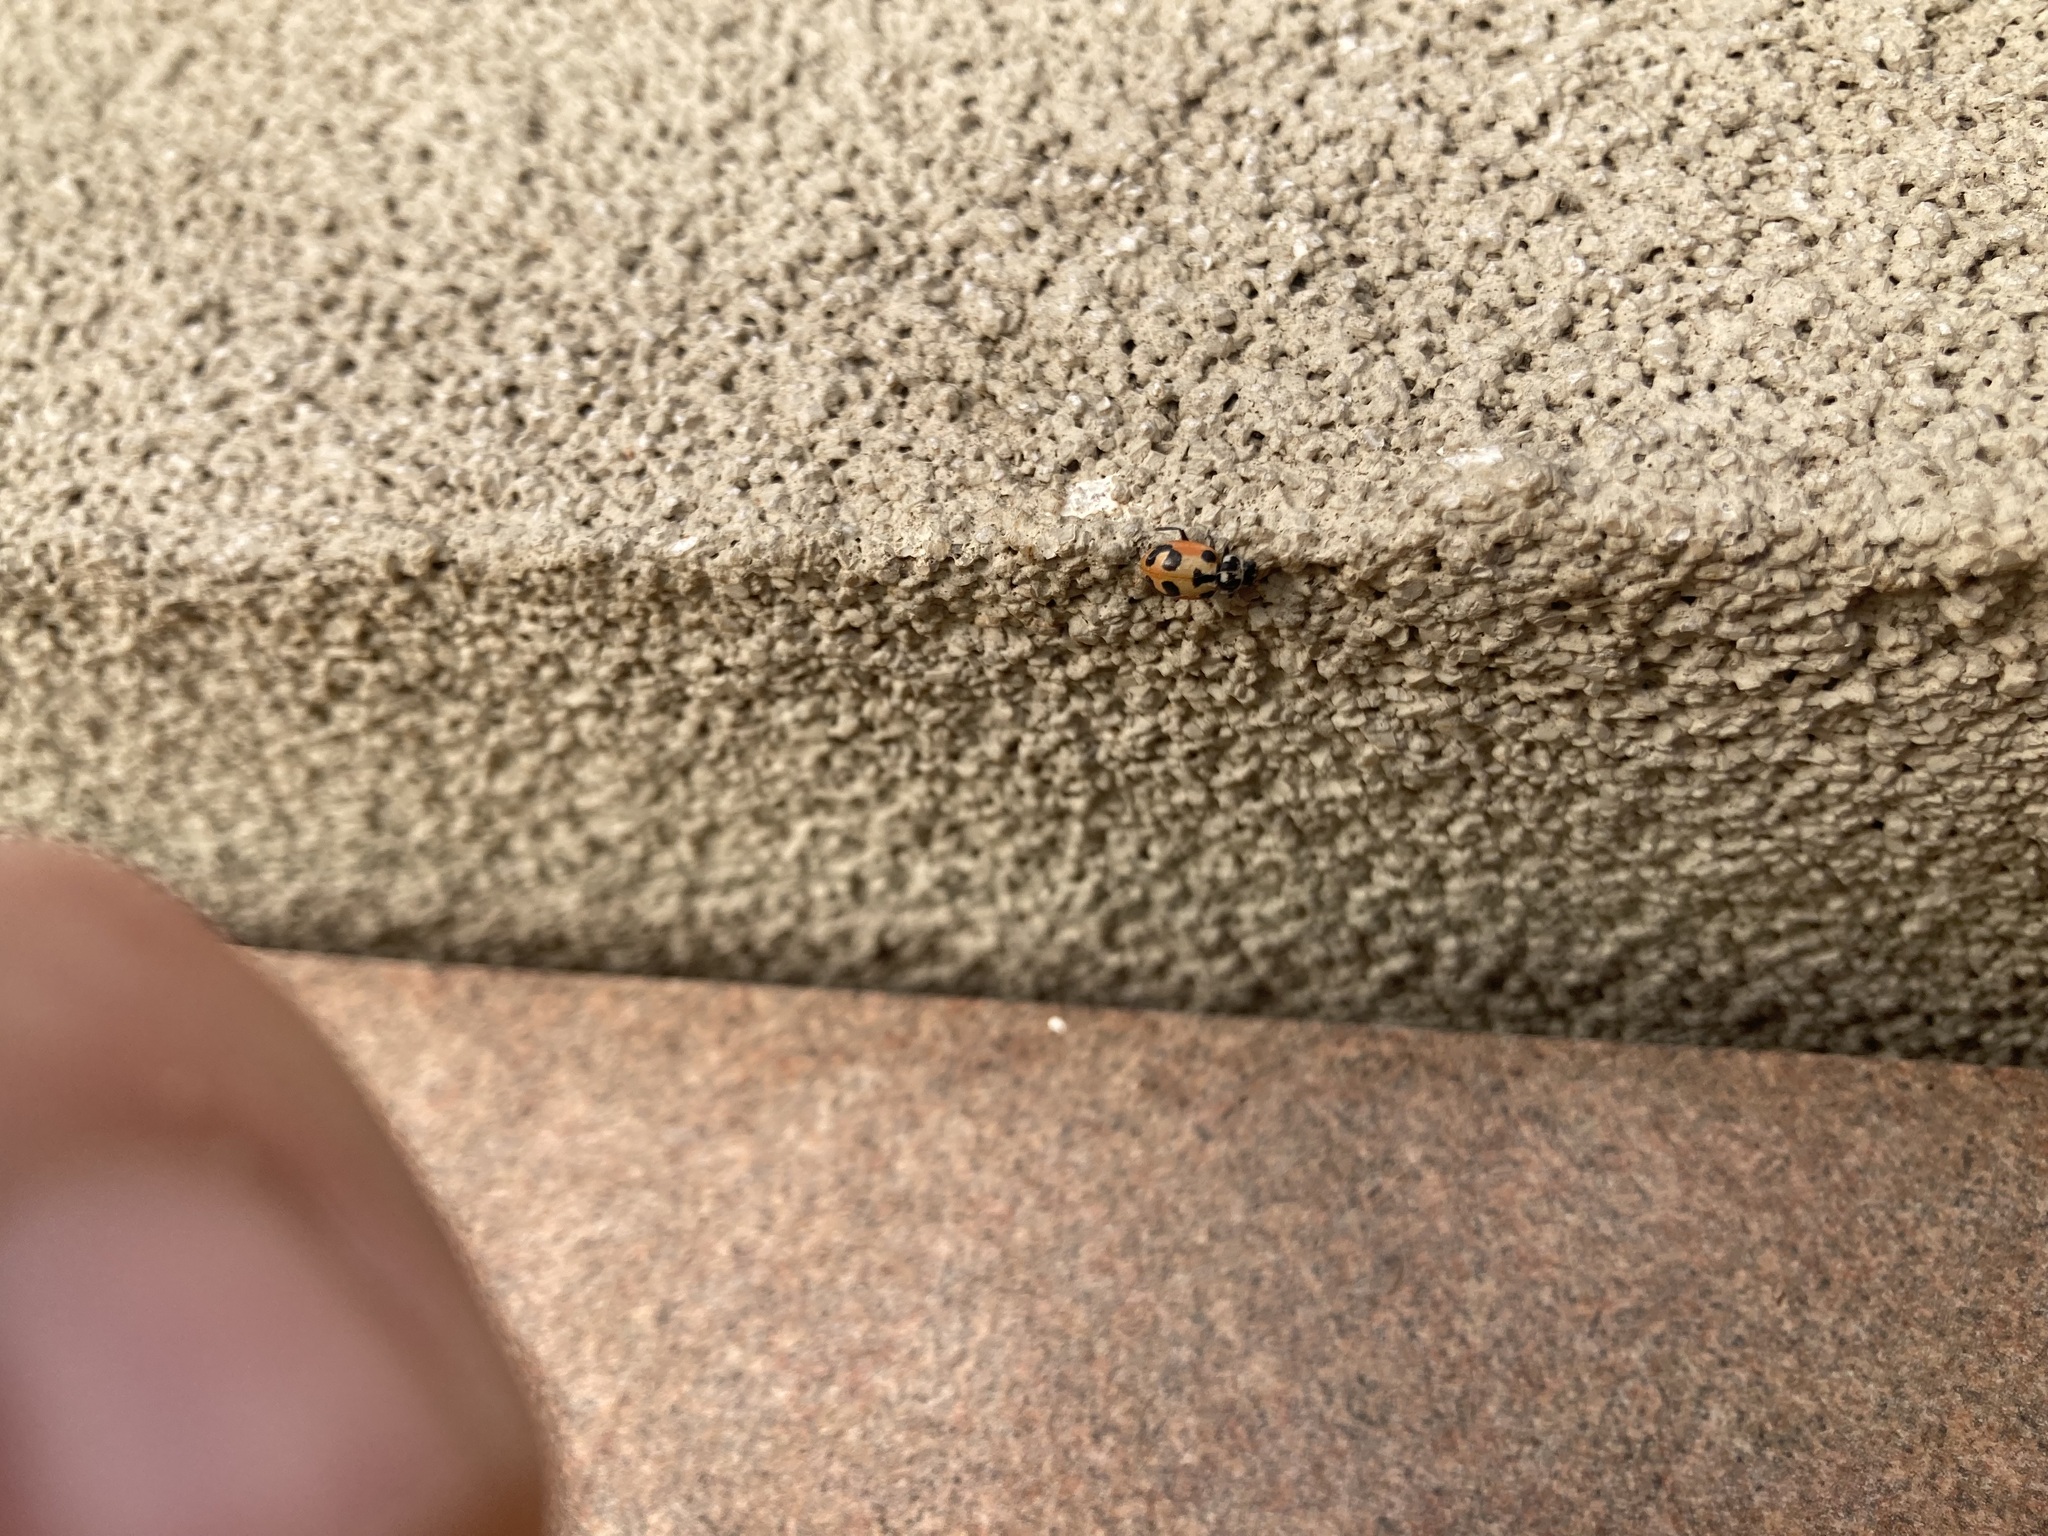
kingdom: Animalia
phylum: Arthropoda
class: Insecta
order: Coleoptera
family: Coccinellidae
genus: Hippodamia
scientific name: Hippodamia parenthesis
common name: Parenthesis lady beetle
